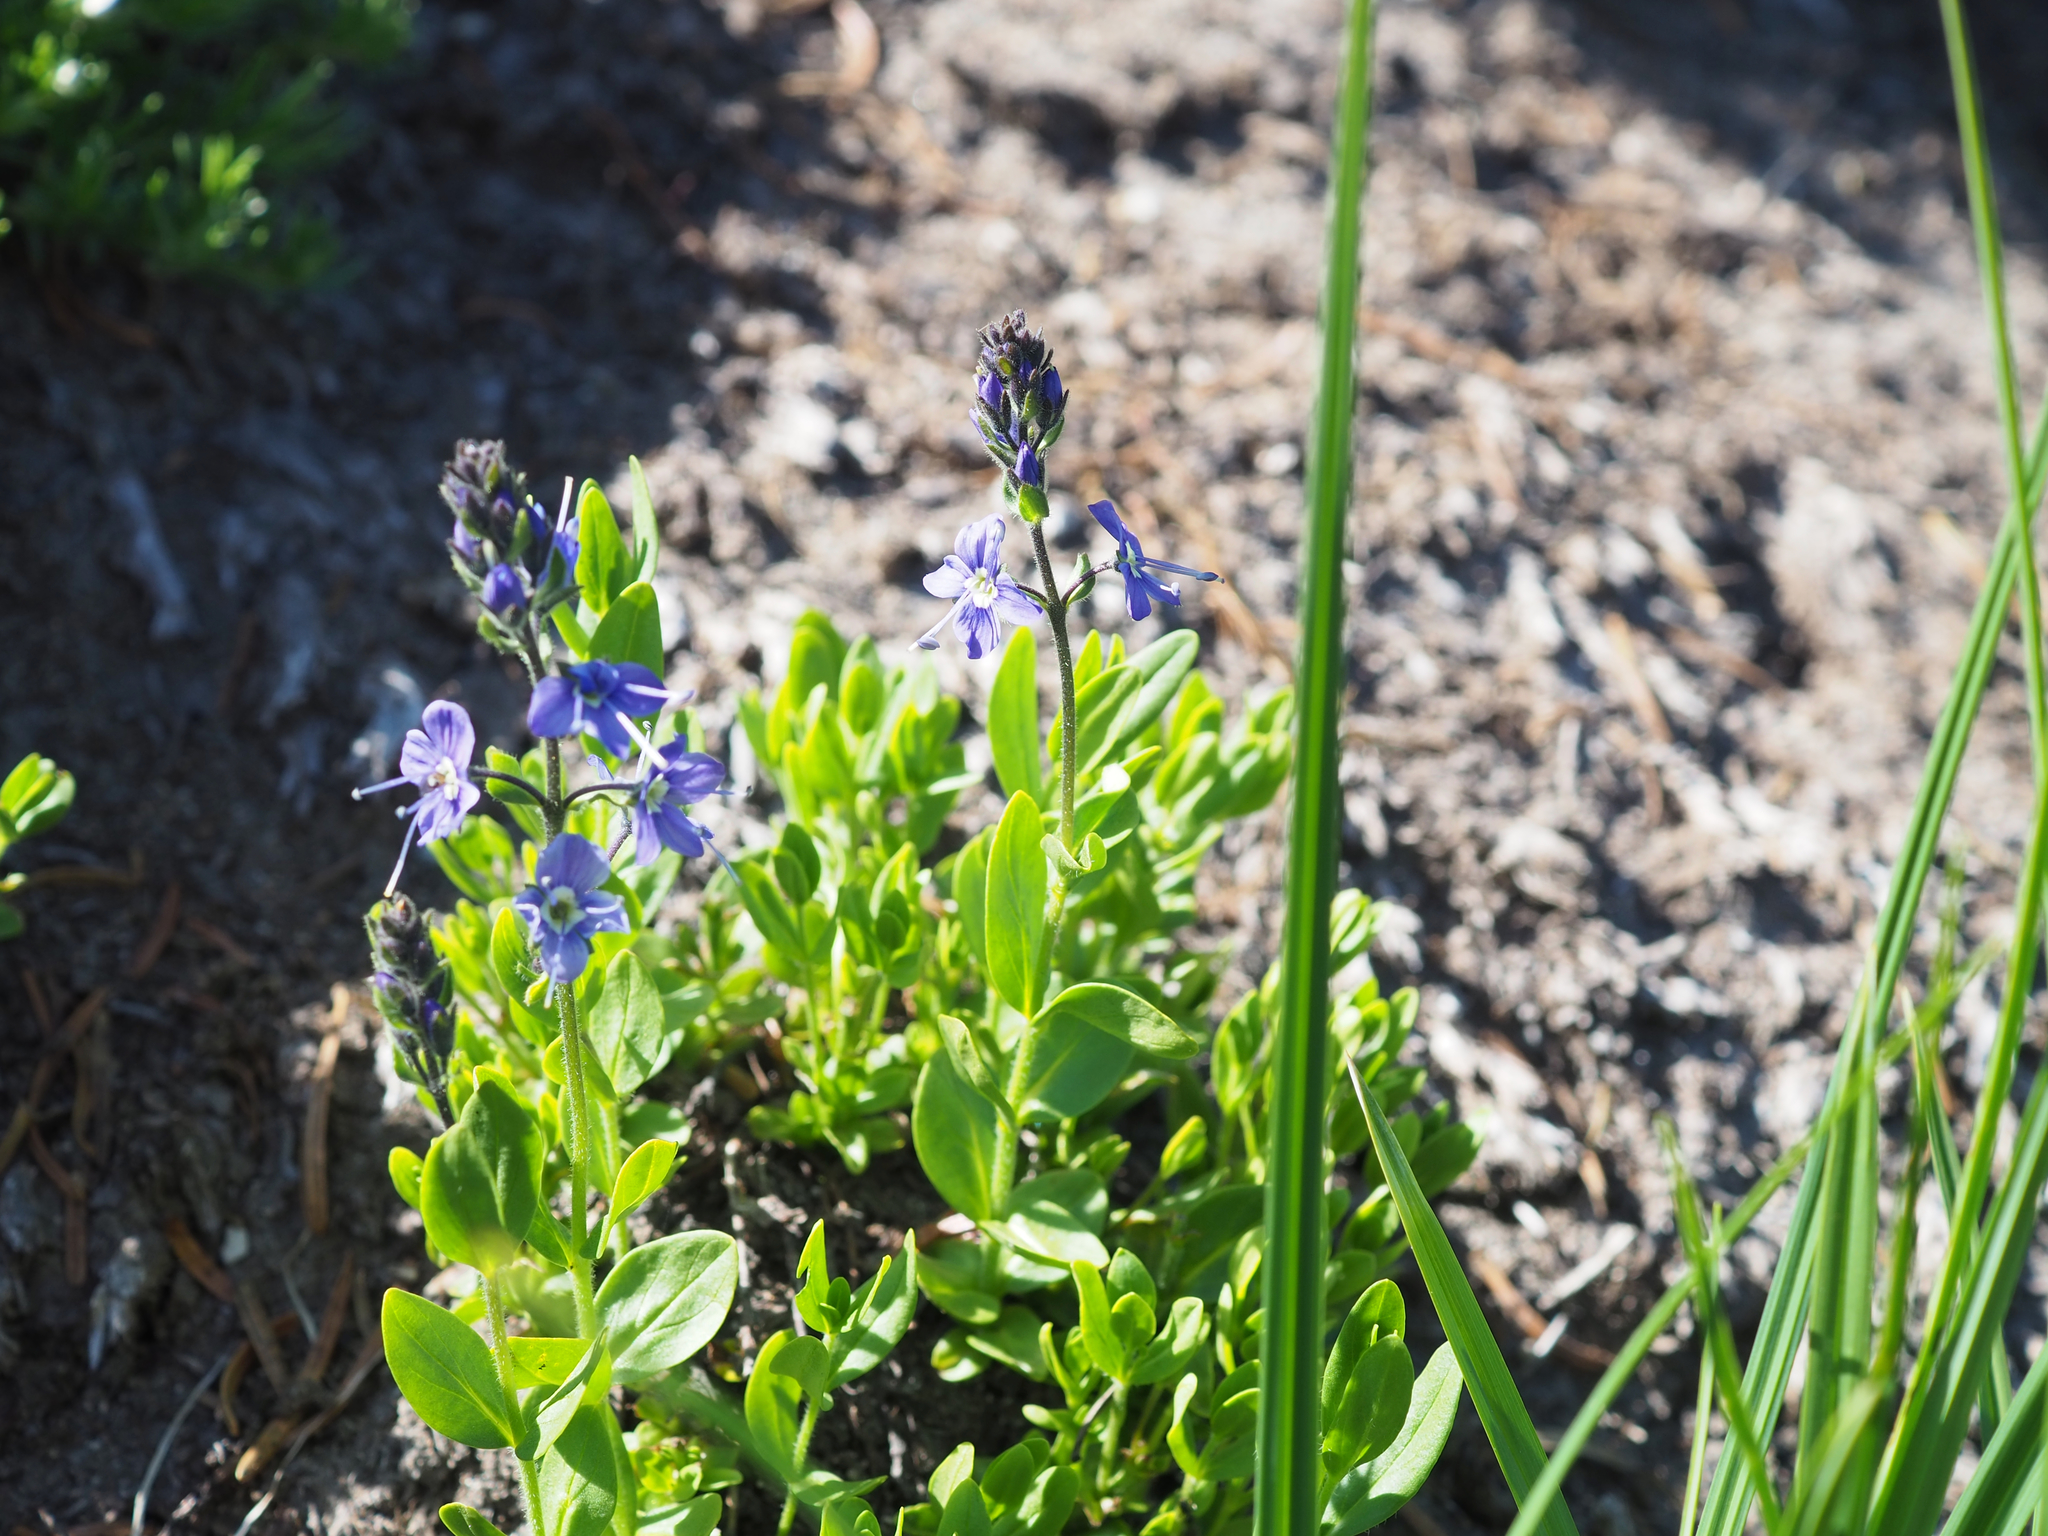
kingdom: Plantae
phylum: Tracheophyta
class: Magnoliopsida
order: Lamiales
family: Plantaginaceae
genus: Veronica
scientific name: Veronica cusickii
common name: Cusick's speedwell
